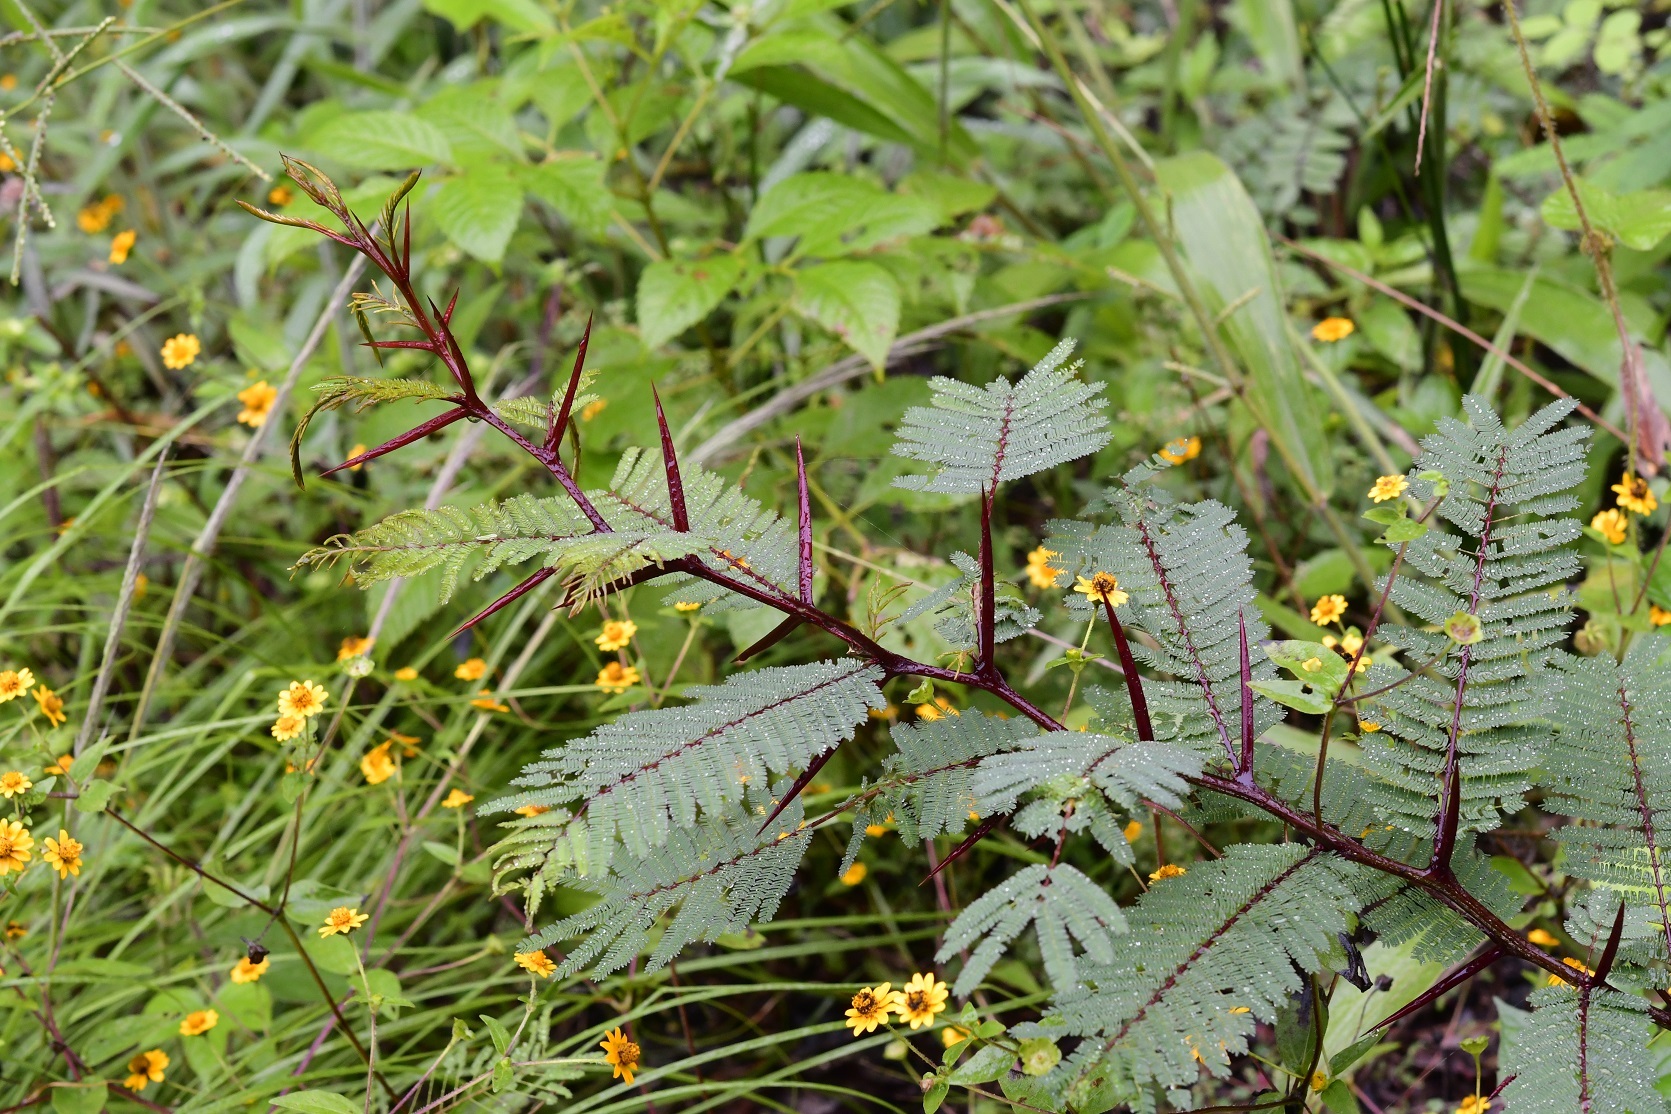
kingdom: Plantae
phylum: Tracheophyta
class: Magnoliopsida
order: Fabales
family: Fabaceae
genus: Vachellia
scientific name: Vachellia pennatula
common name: Fern-leaf acacia
